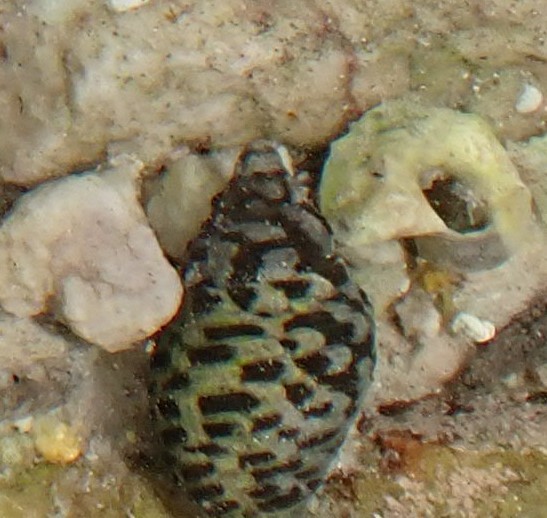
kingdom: Animalia
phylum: Mollusca
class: Gastropoda
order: Neogastropoda
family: Cominellidae
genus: Cominella
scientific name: Cominella lineolata
